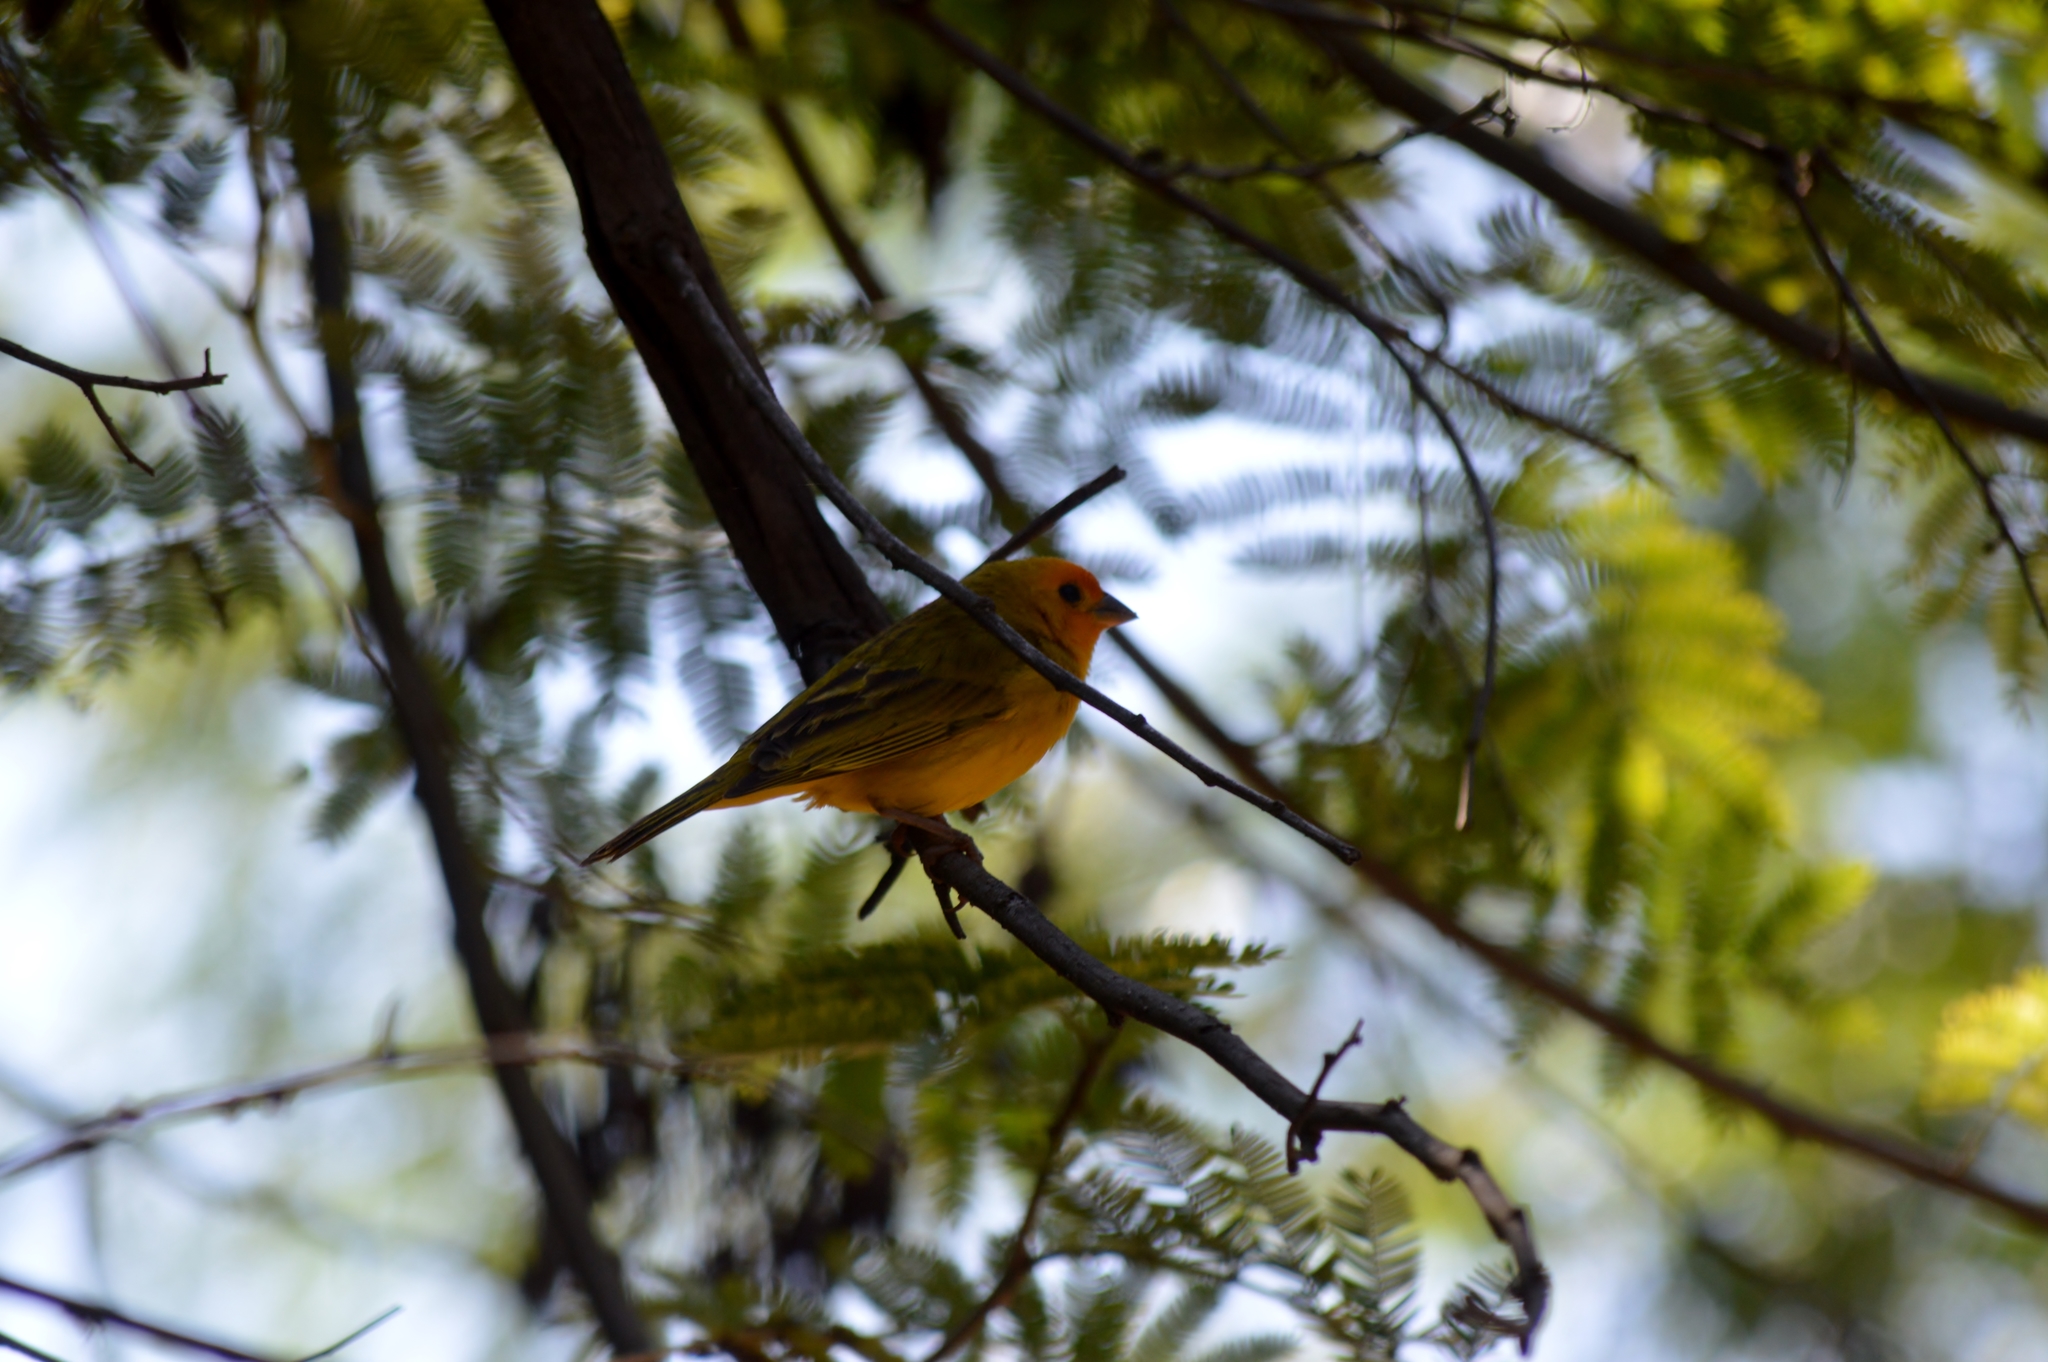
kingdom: Animalia
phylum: Chordata
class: Aves
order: Passeriformes
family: Thraupidae
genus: Sicalis
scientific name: Sicalis flaveola
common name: Saffron finch
